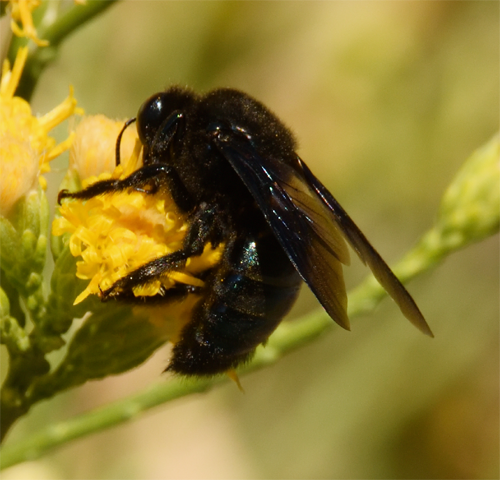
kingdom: Animalia
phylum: Arthropoda
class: Insecta
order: Hymenoptera
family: Apidae
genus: Xylocopa
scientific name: Xylocopa californica
